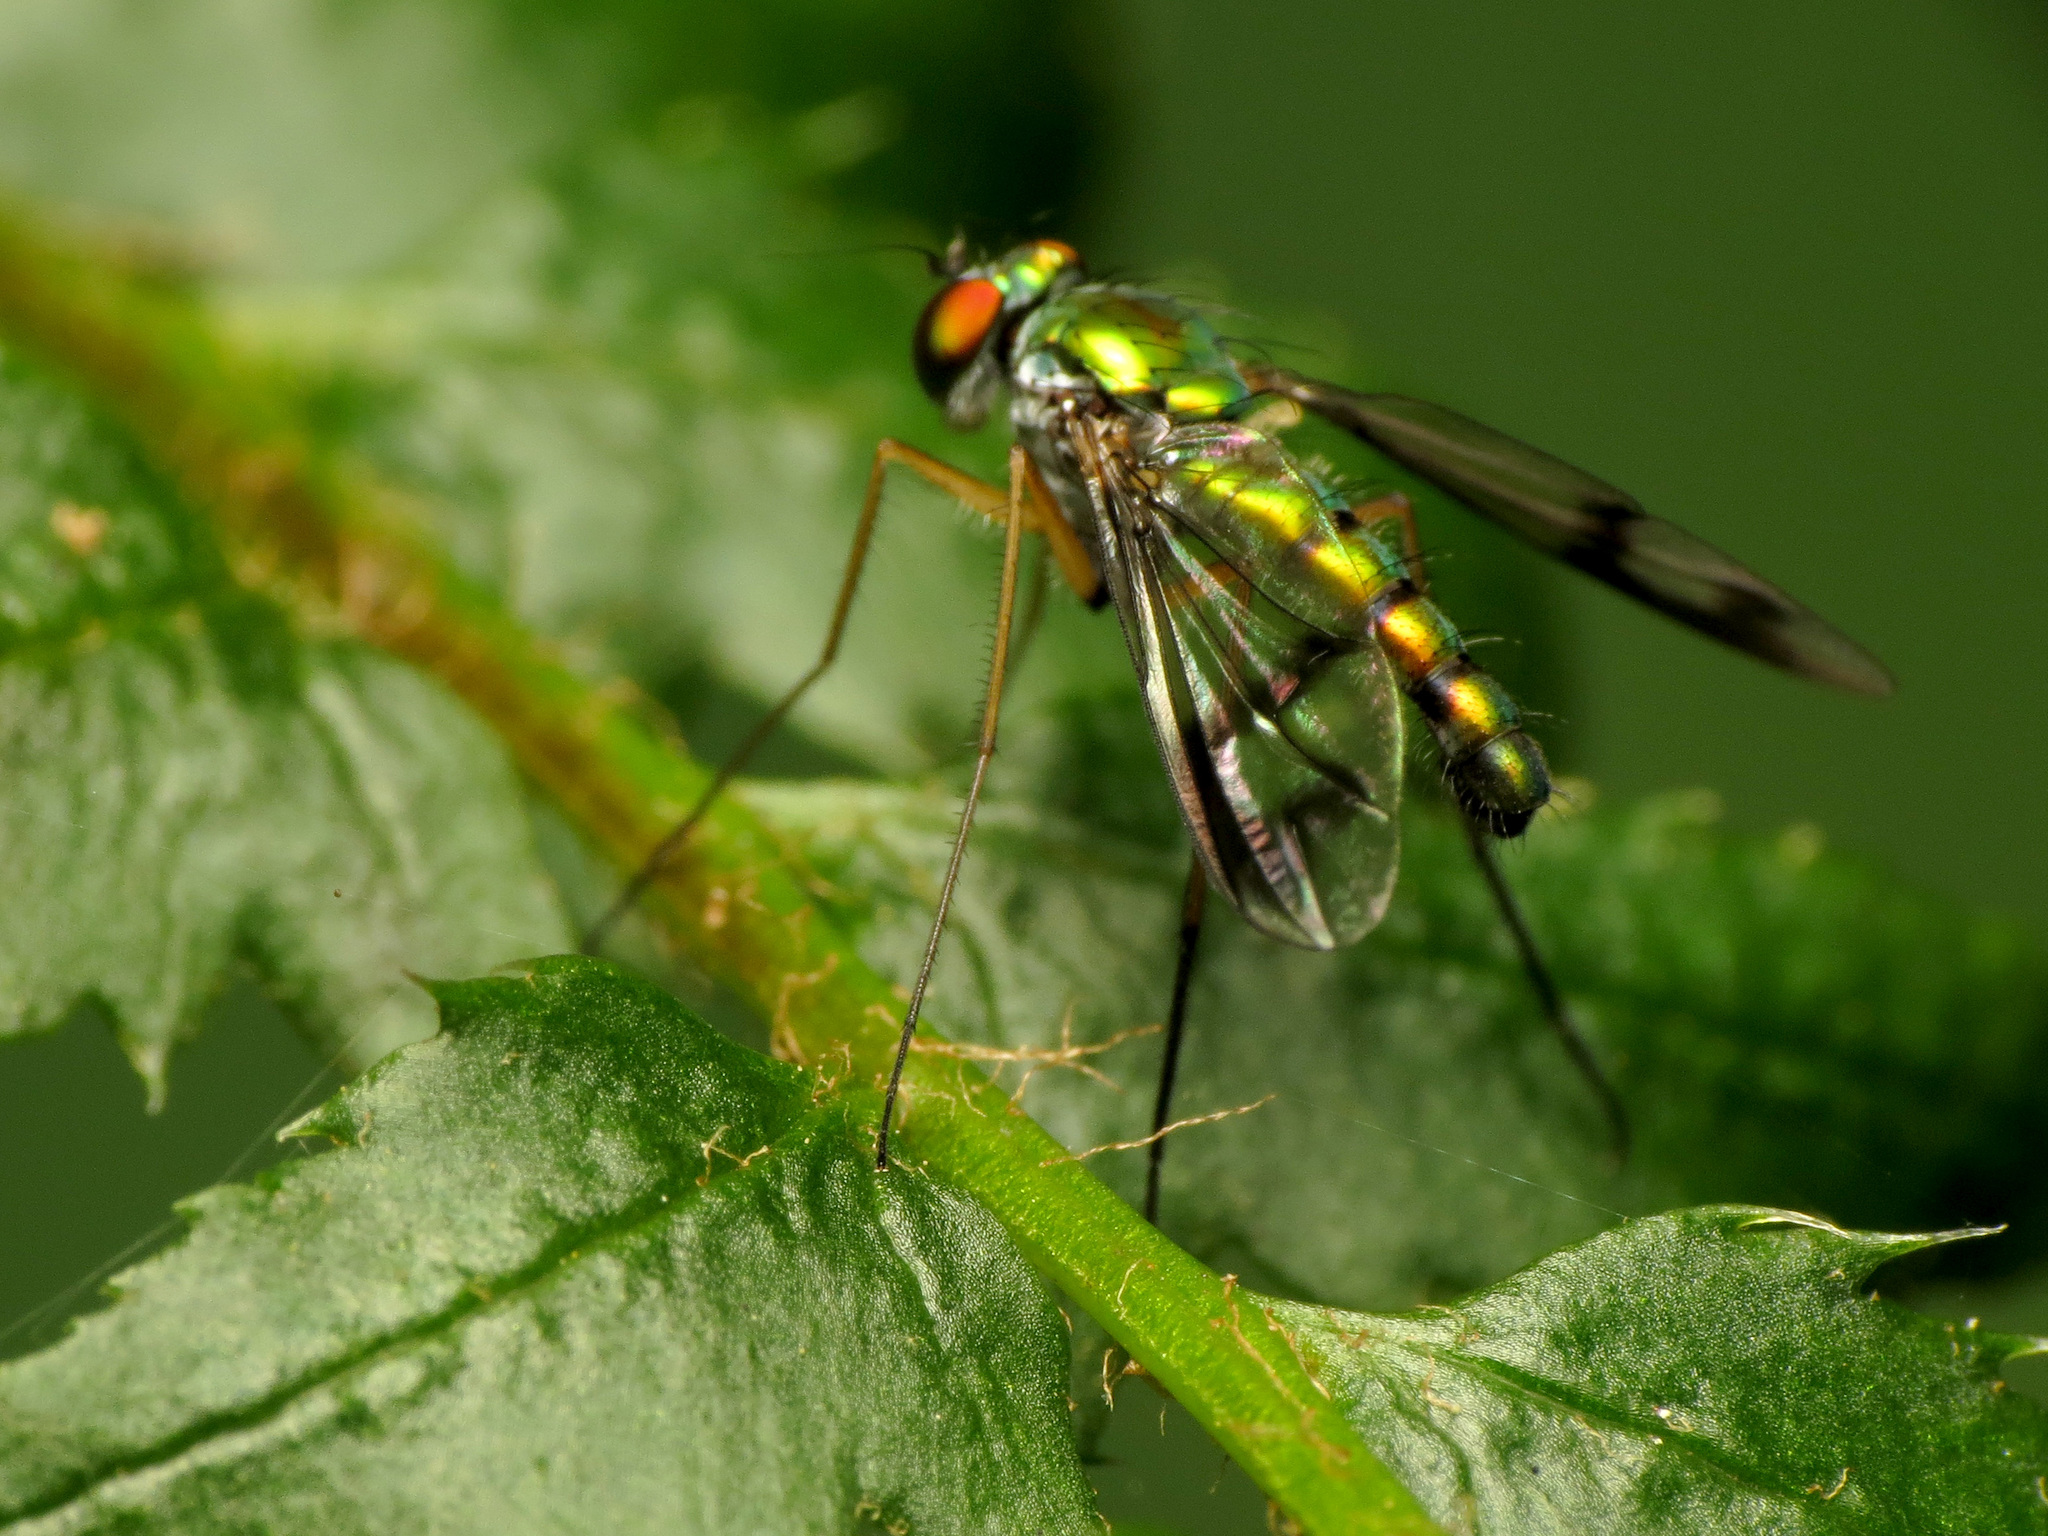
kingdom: Animalia
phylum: Arthropoda
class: Insecta
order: Diptera
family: Dolichopodidae
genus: Condylostylus
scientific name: Condylostylus sipho
